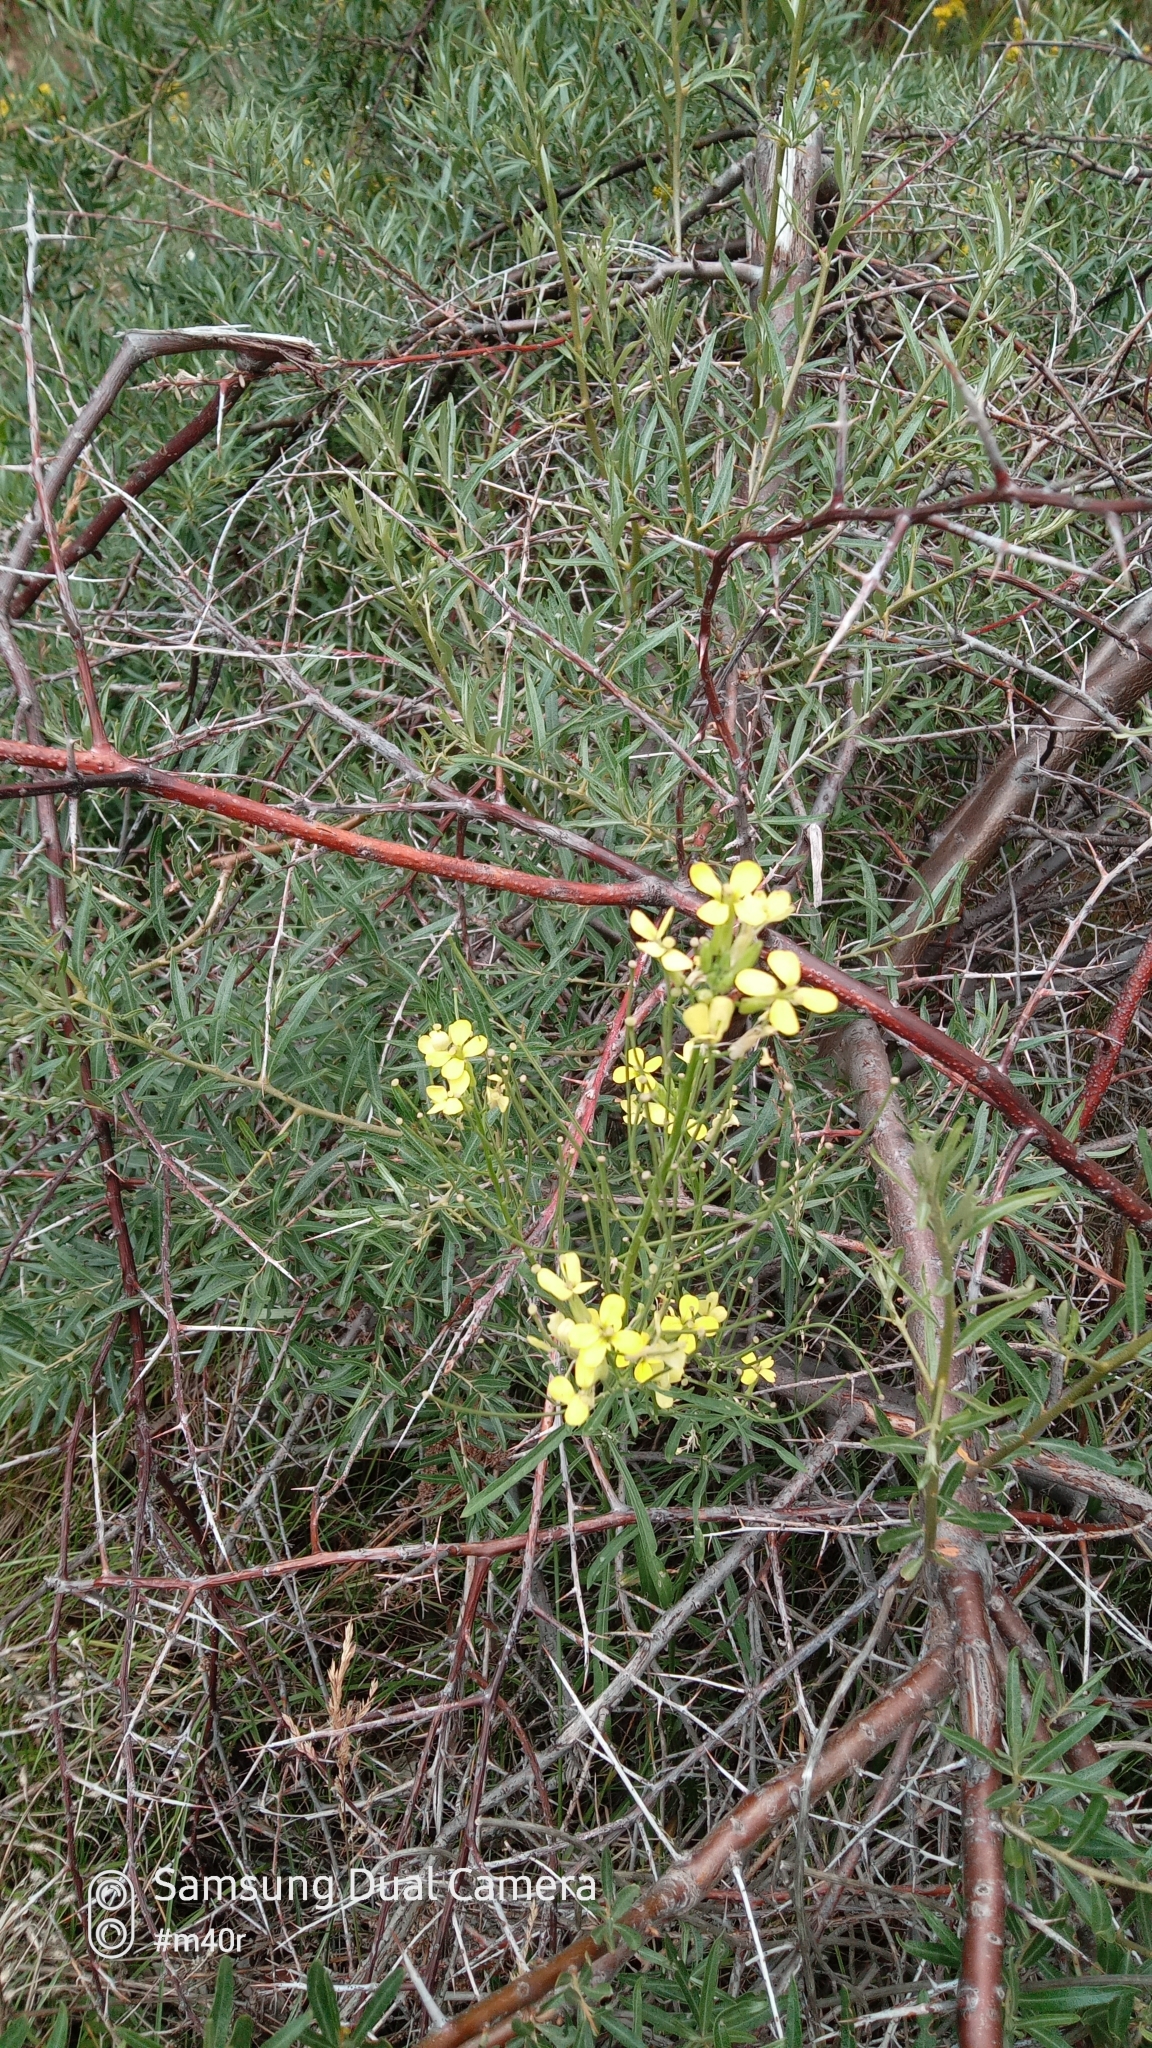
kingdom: Plantae
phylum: Tracheophyta
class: Magnoliopsida
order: Brassicales
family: Brassicaceae
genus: Erysimum
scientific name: Erysimum diffusum
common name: Diffuse wallflower
